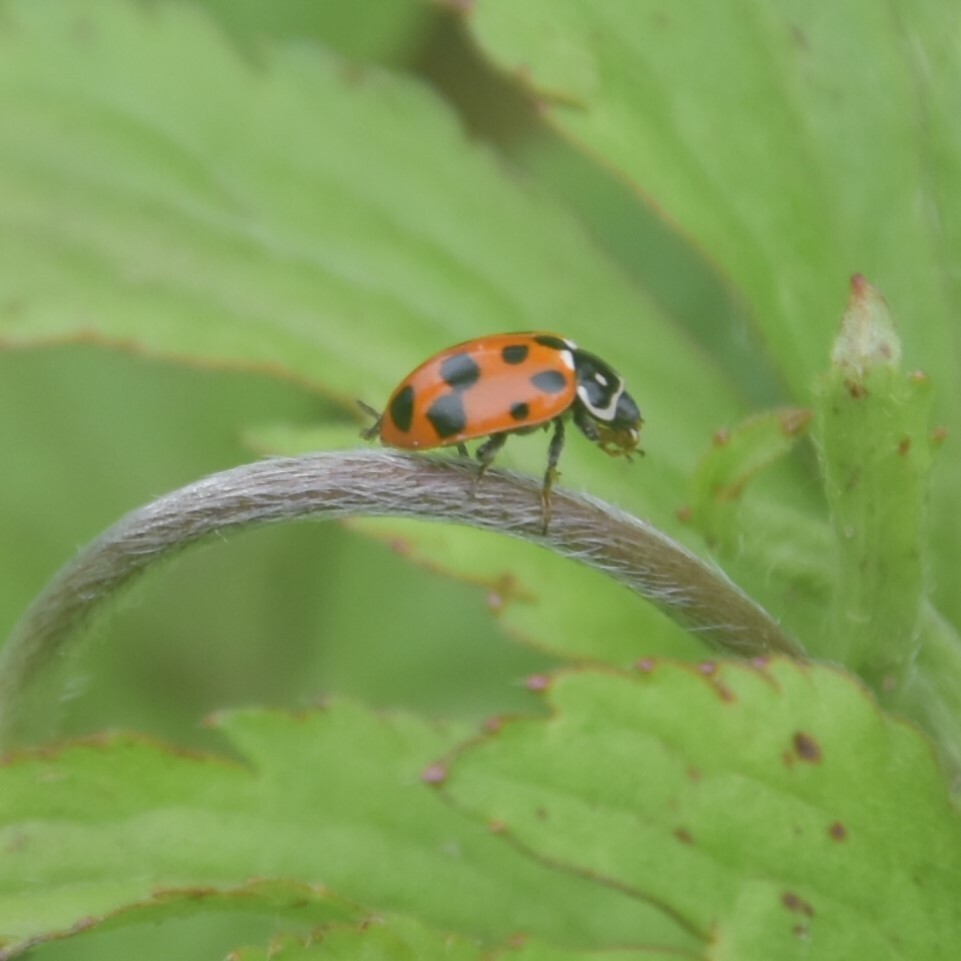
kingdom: Animalia
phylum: Arthropoda
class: Insecta
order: Coleoptera
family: Coccinellidae
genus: Hippodamia
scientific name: Hippodamia variegata
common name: Ladybird beetle
